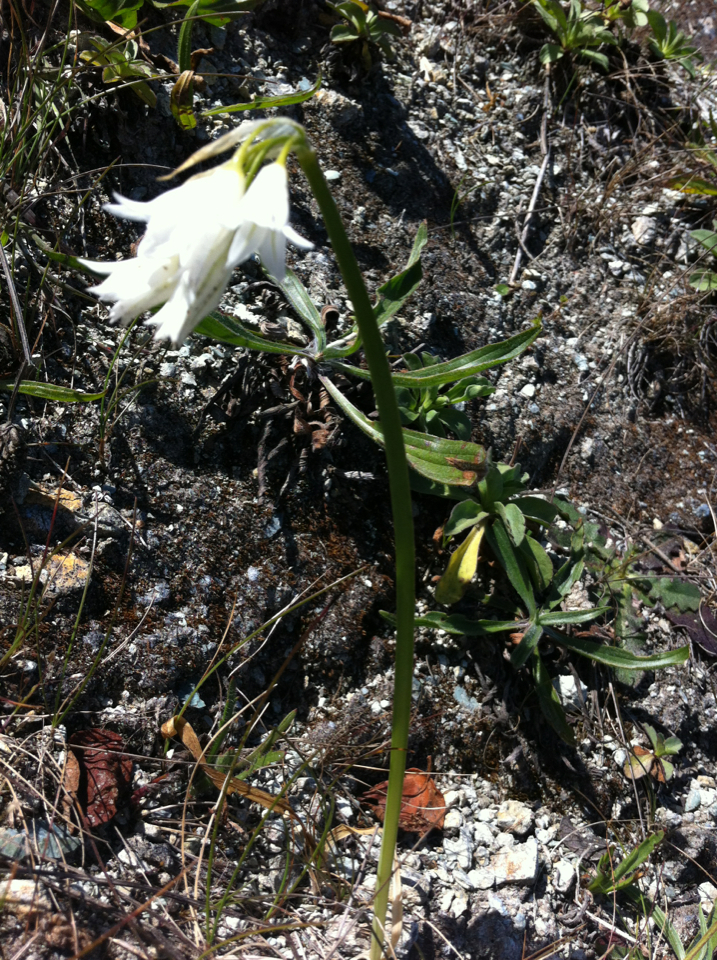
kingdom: Plantae
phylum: Tracheophyta
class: Liliopsida
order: Asparagales
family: Amaryllidaceae
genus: Allium
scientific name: Allium triquetrum
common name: Three-cornered garlic
